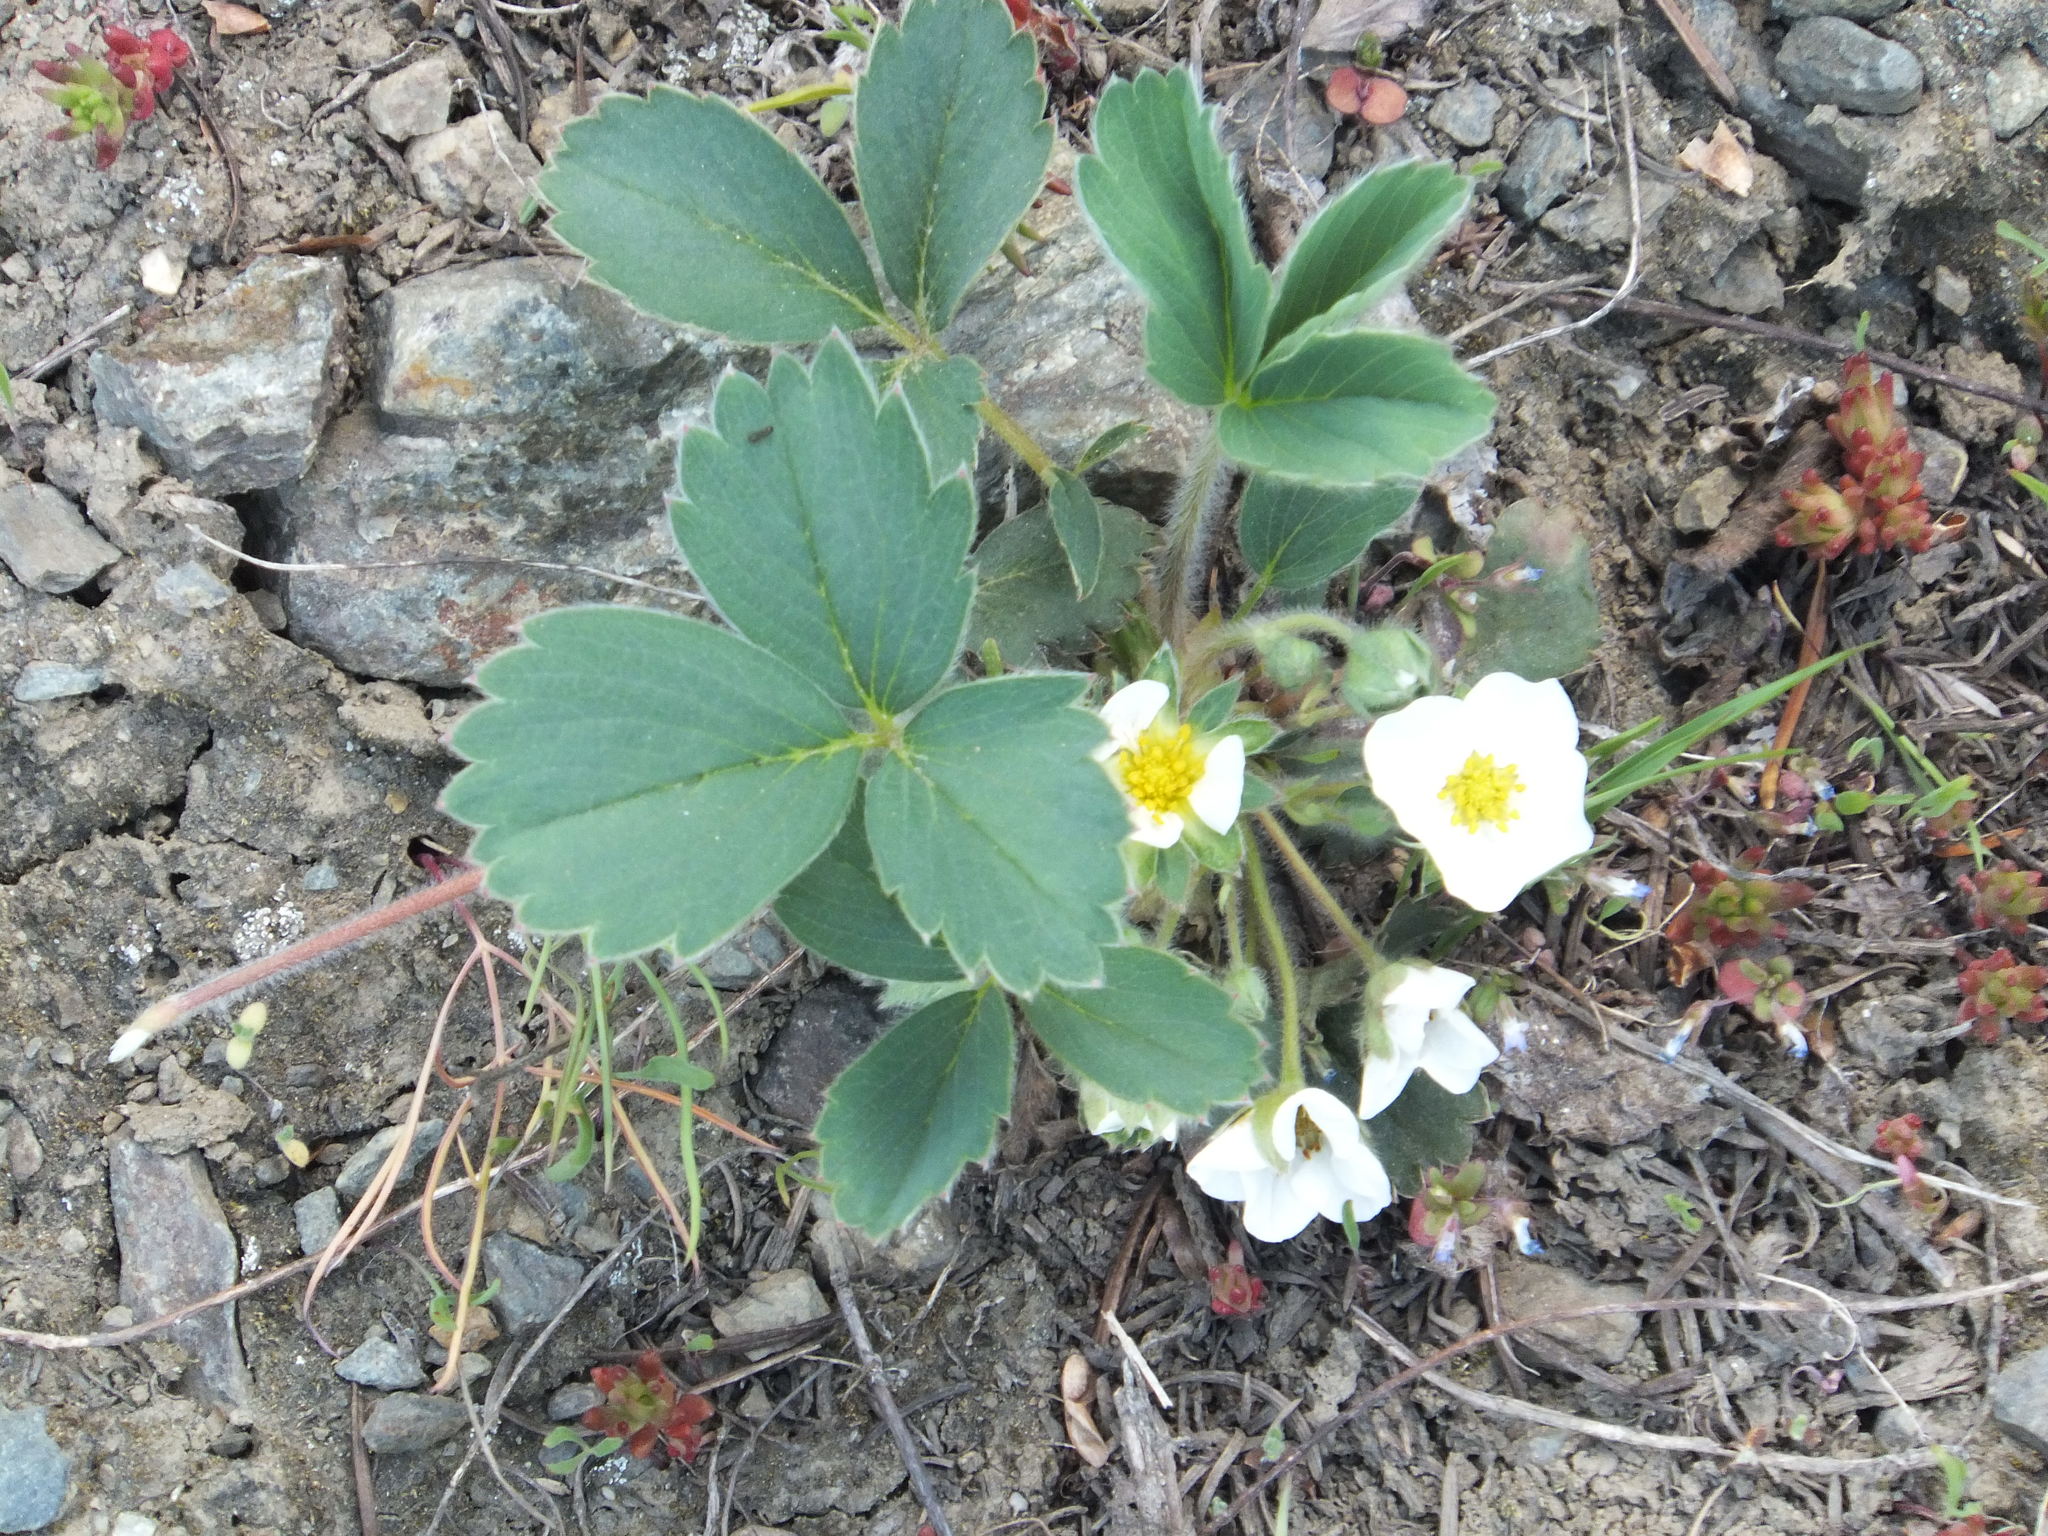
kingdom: Plantae
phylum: Tracheophyta
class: Magnoliopsida
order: Rosales
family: Rosaceae
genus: Fragaria
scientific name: Fragaria virginiana
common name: Thickleaved wild strawberry
